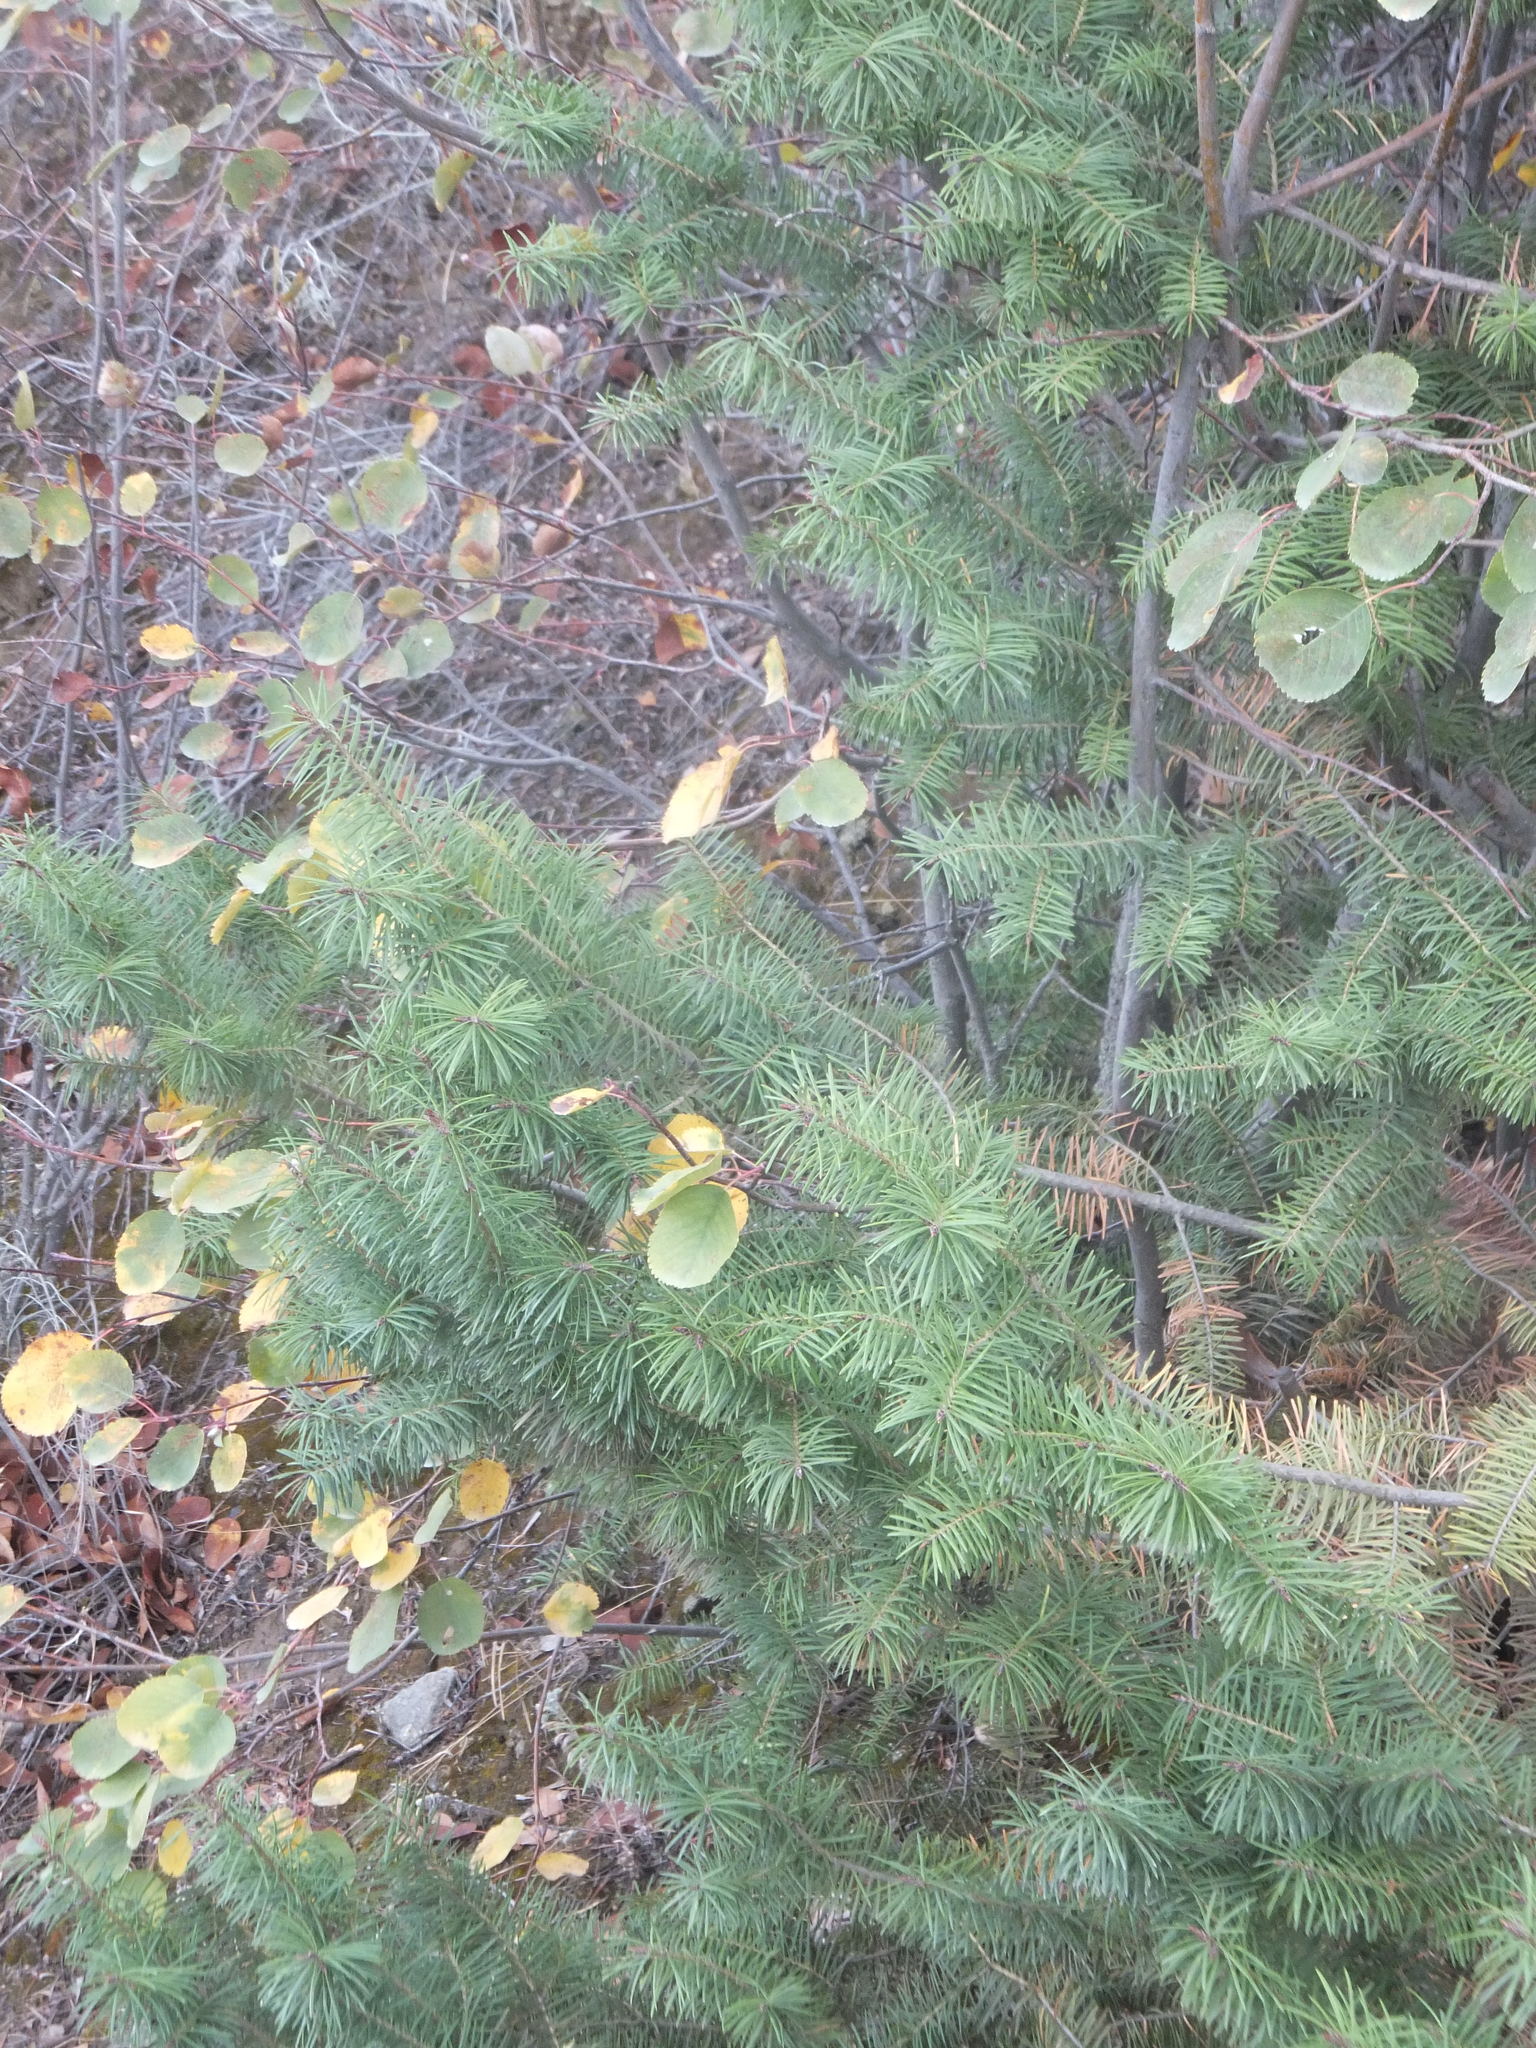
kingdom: Plantae
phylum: Tracheophyta
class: Pinopsida
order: Pinales
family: Pinaceae
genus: Pseudotsuga
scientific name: Pseudotsuga menziesii
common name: Douglas fir
